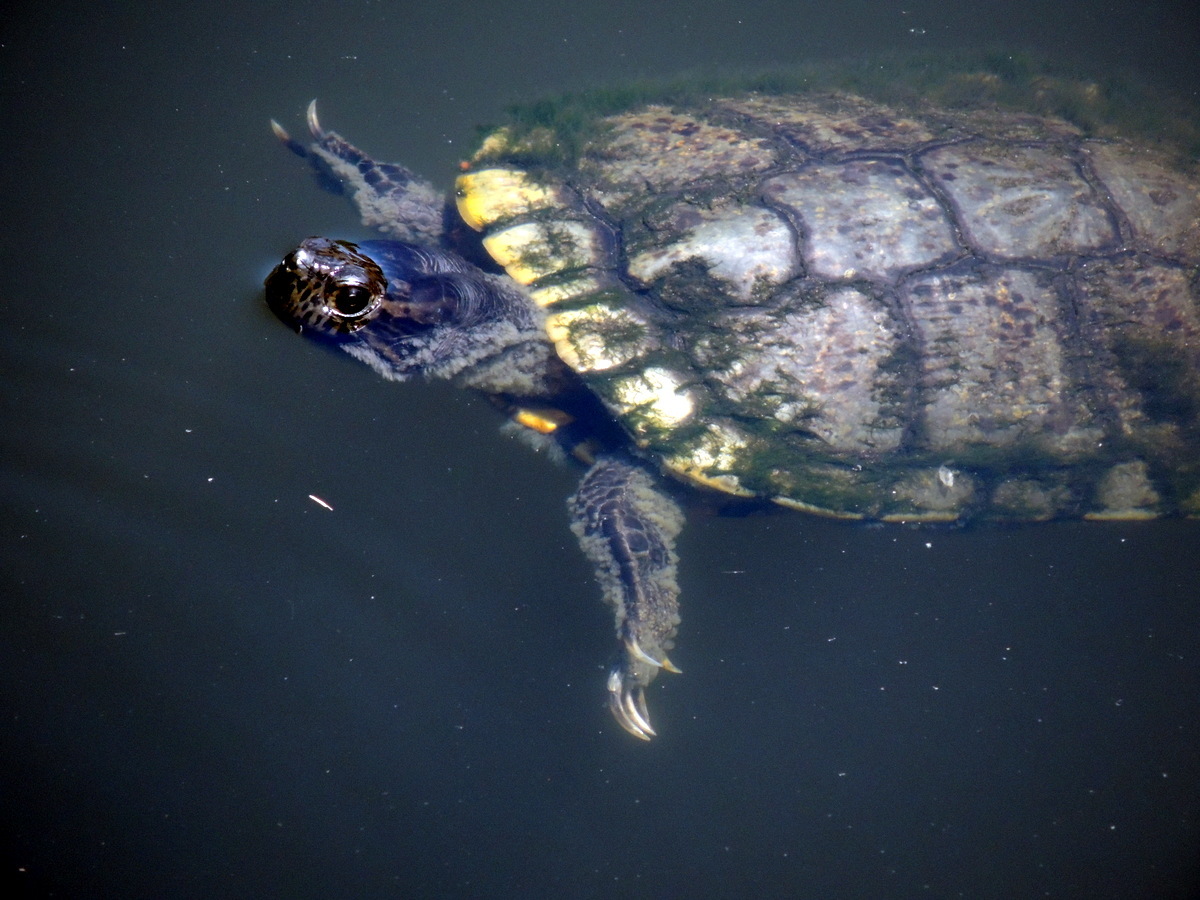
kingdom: Animalia
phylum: Chordata
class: Testudines
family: Emydidae
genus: Trachemys
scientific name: Trachemys scripta
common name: Slider
